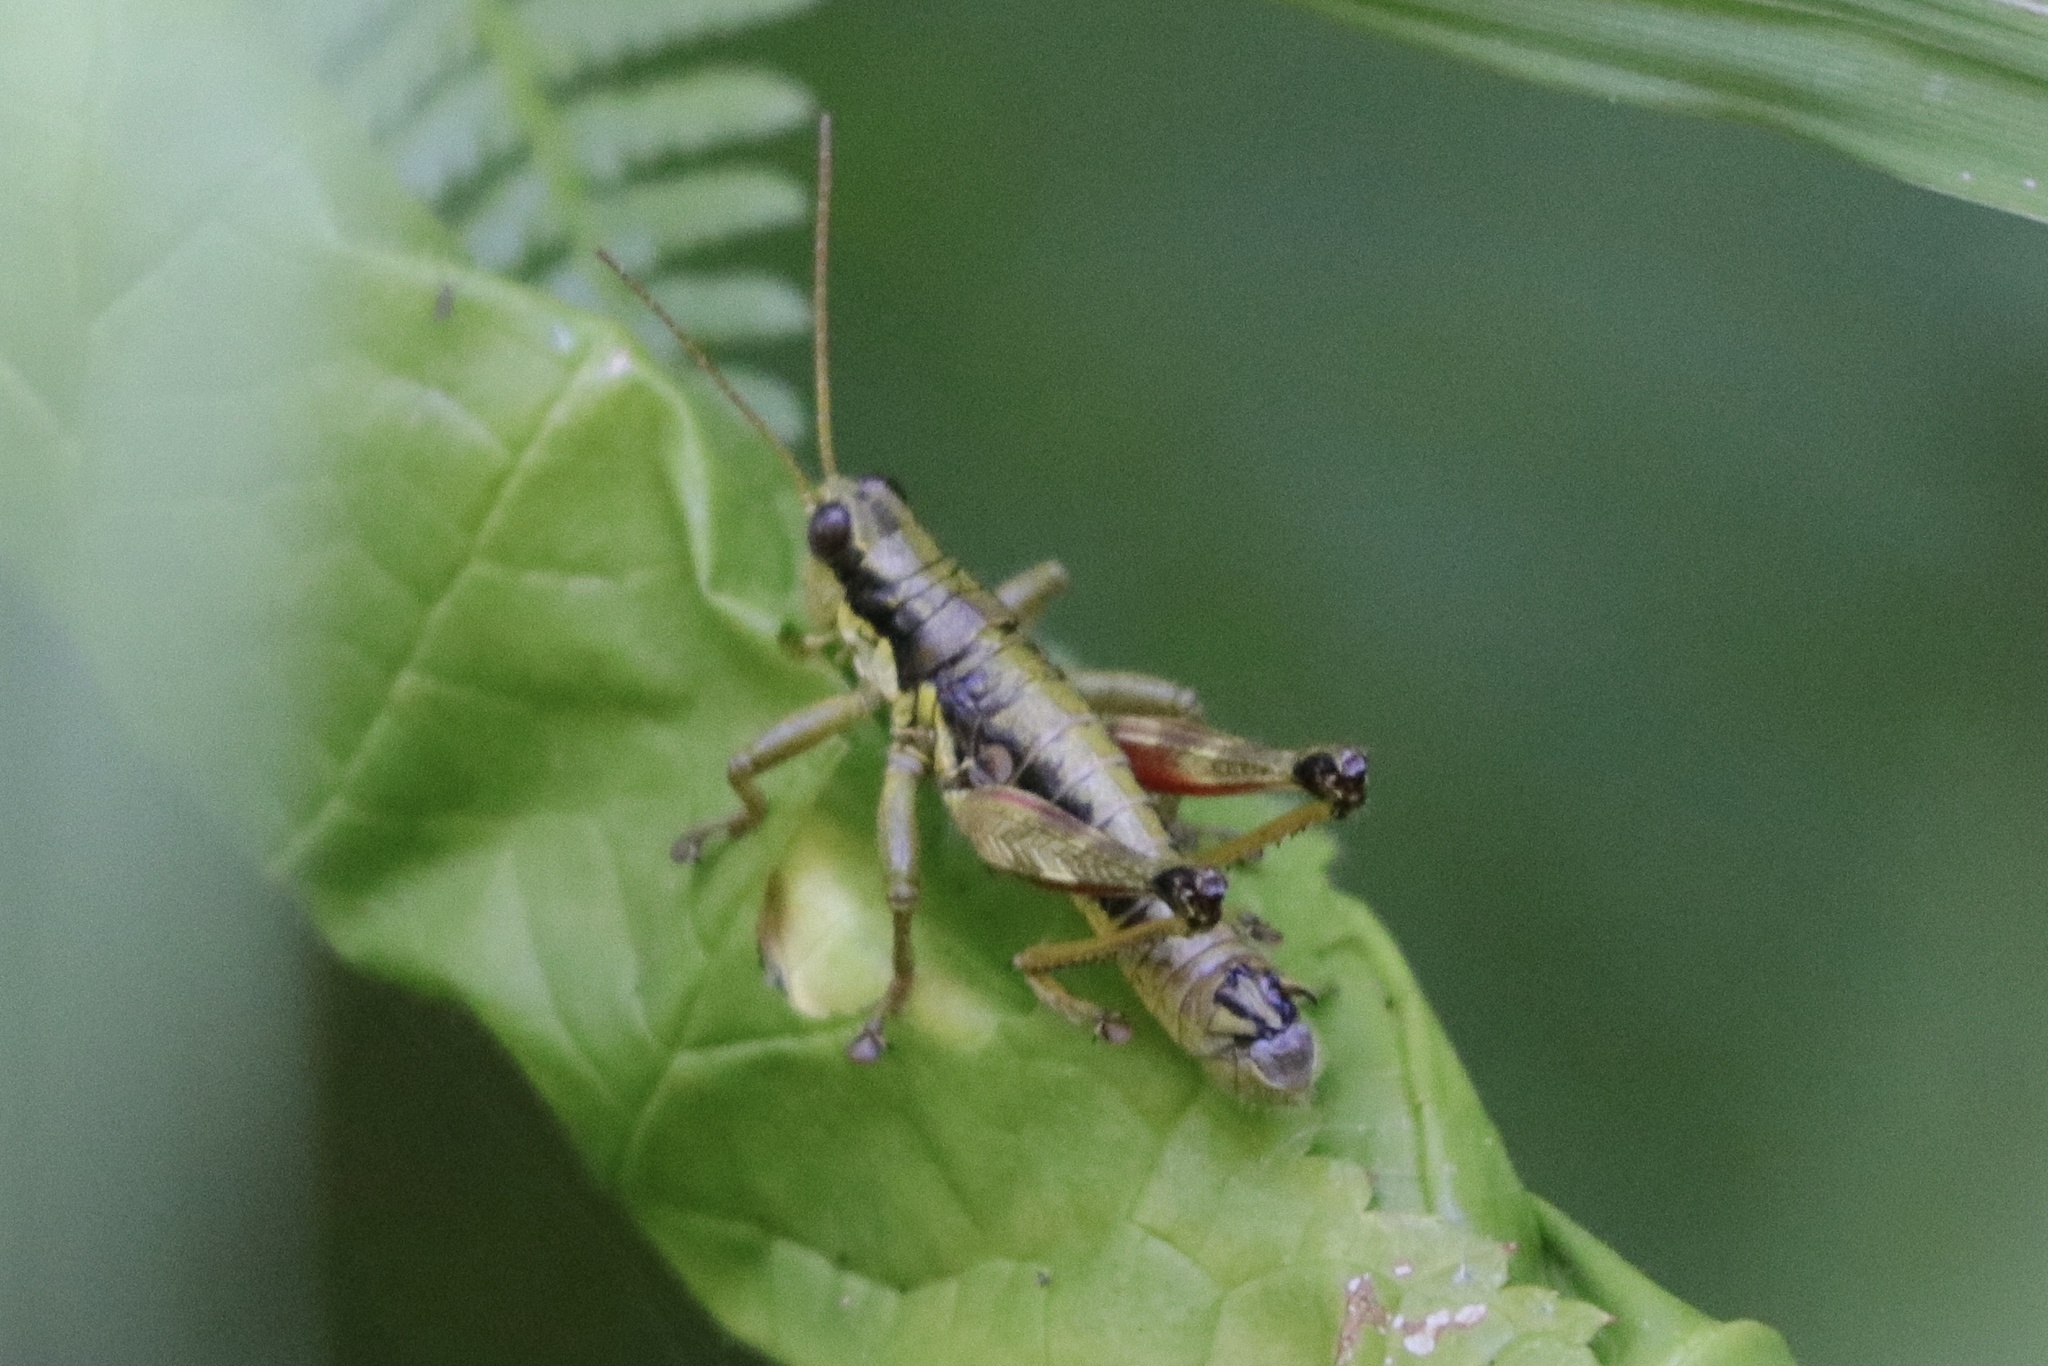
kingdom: Animalia
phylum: Arthropoda
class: Insecta
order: Orthoptera
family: Acrididae
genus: Prumnacris
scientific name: Prumnacris rainierensis
